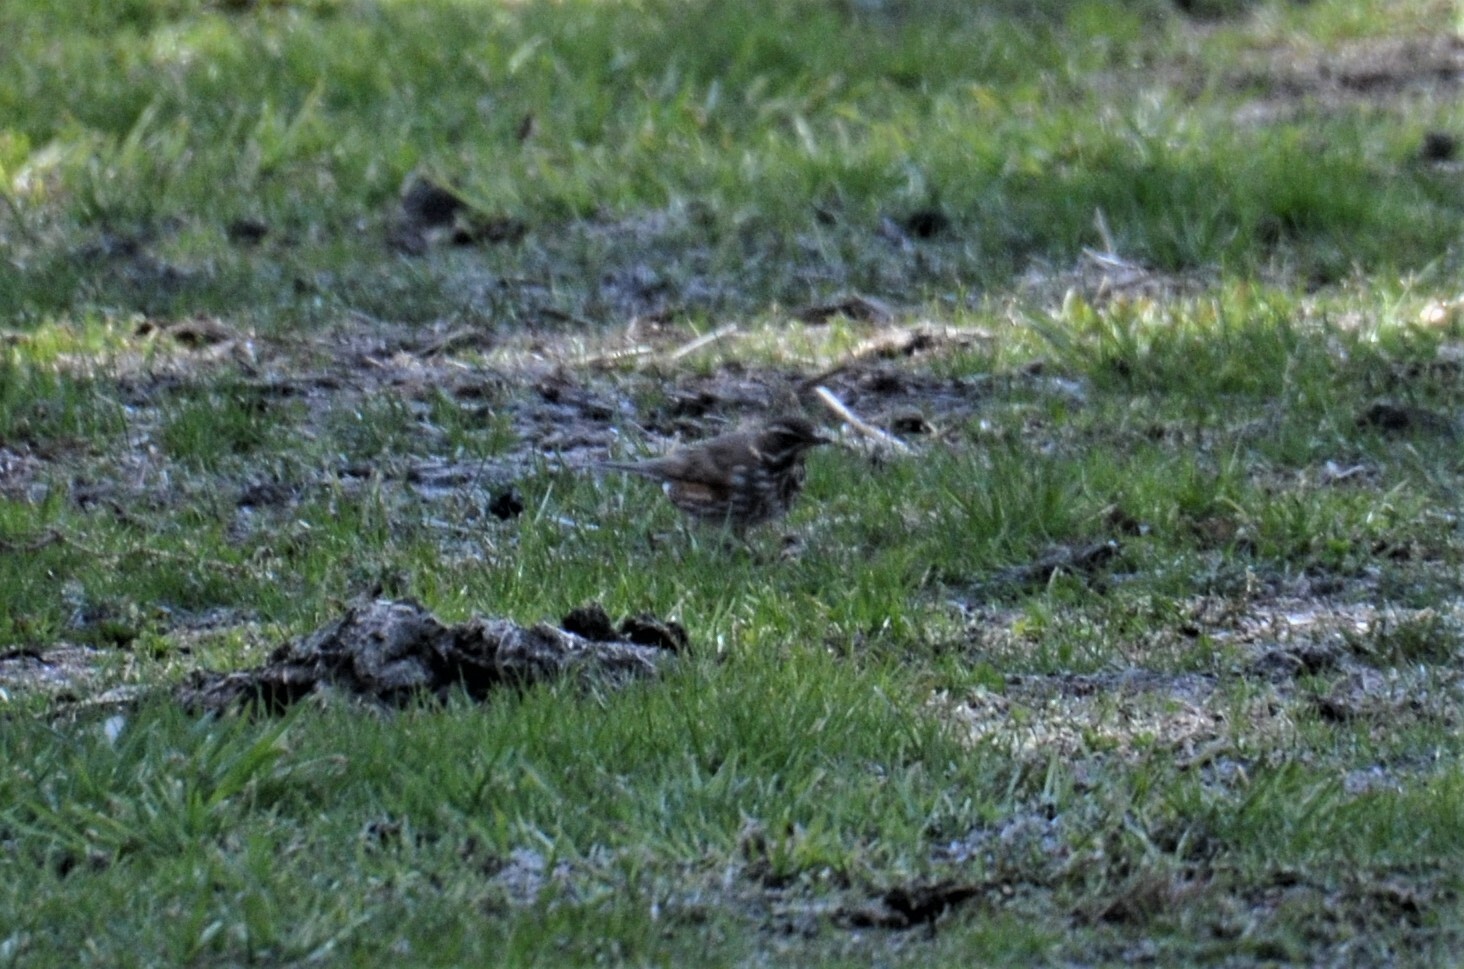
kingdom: Animalia
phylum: Chordata
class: Aves
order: Passeriformes
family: Turdidae
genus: Turdus
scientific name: Turdus iliacus
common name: Redwing
